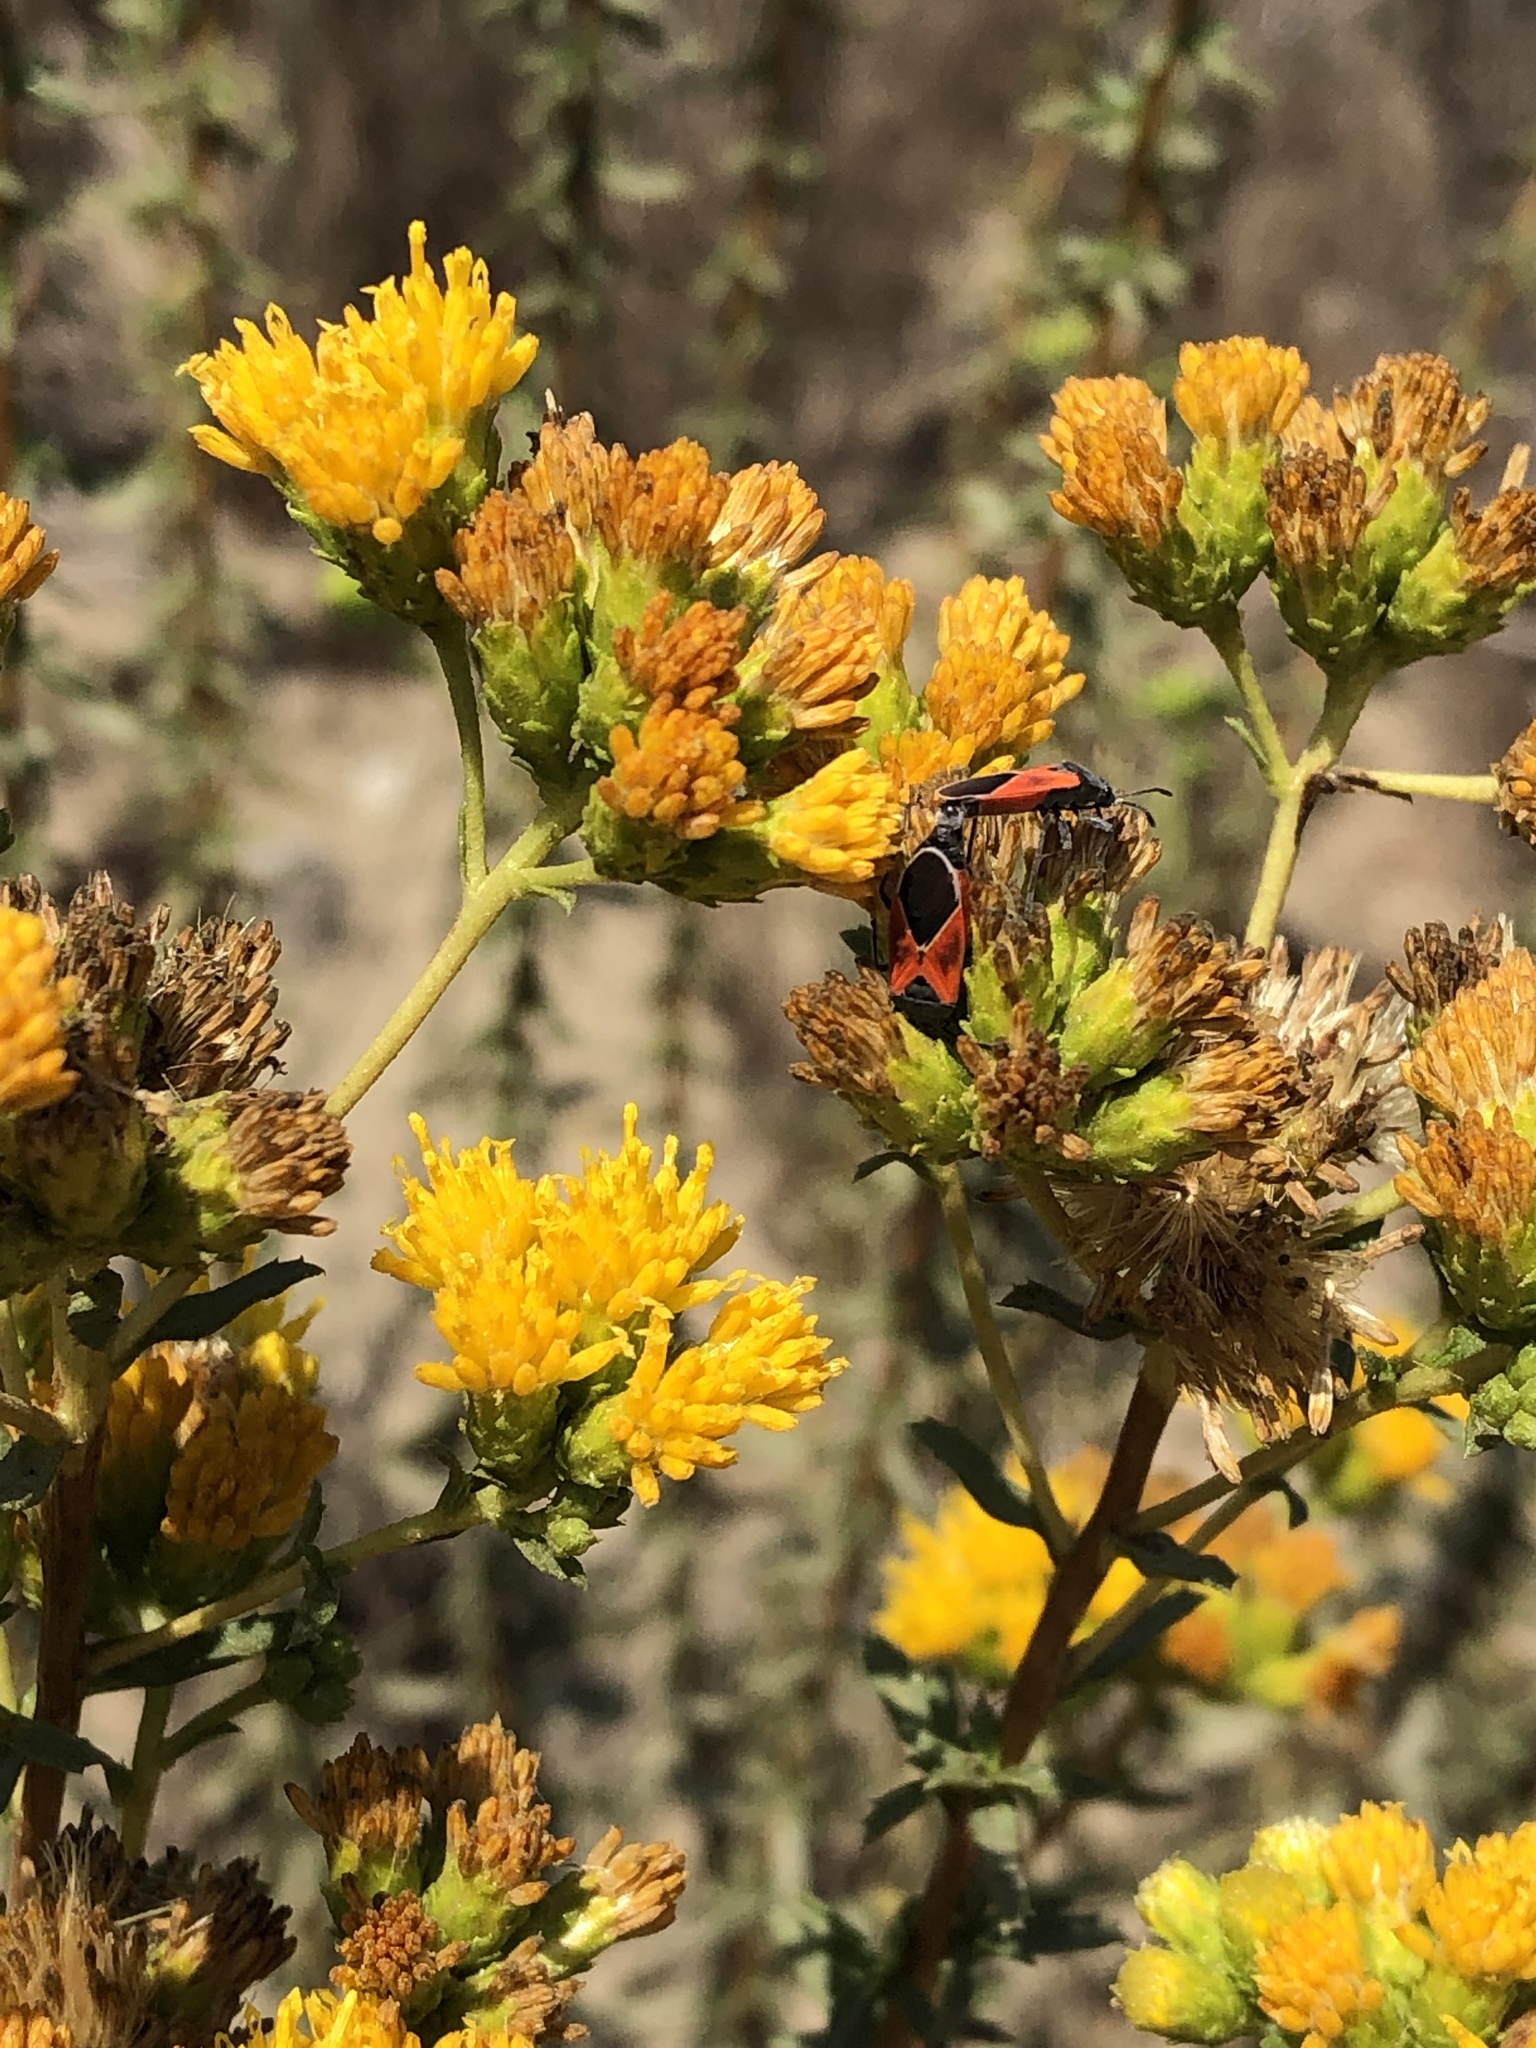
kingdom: Animalia
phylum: Arthropoda
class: Insecta
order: Hemiptera
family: Lygaeidae
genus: Melanopleurus
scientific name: Melanopleurus fuscosus
